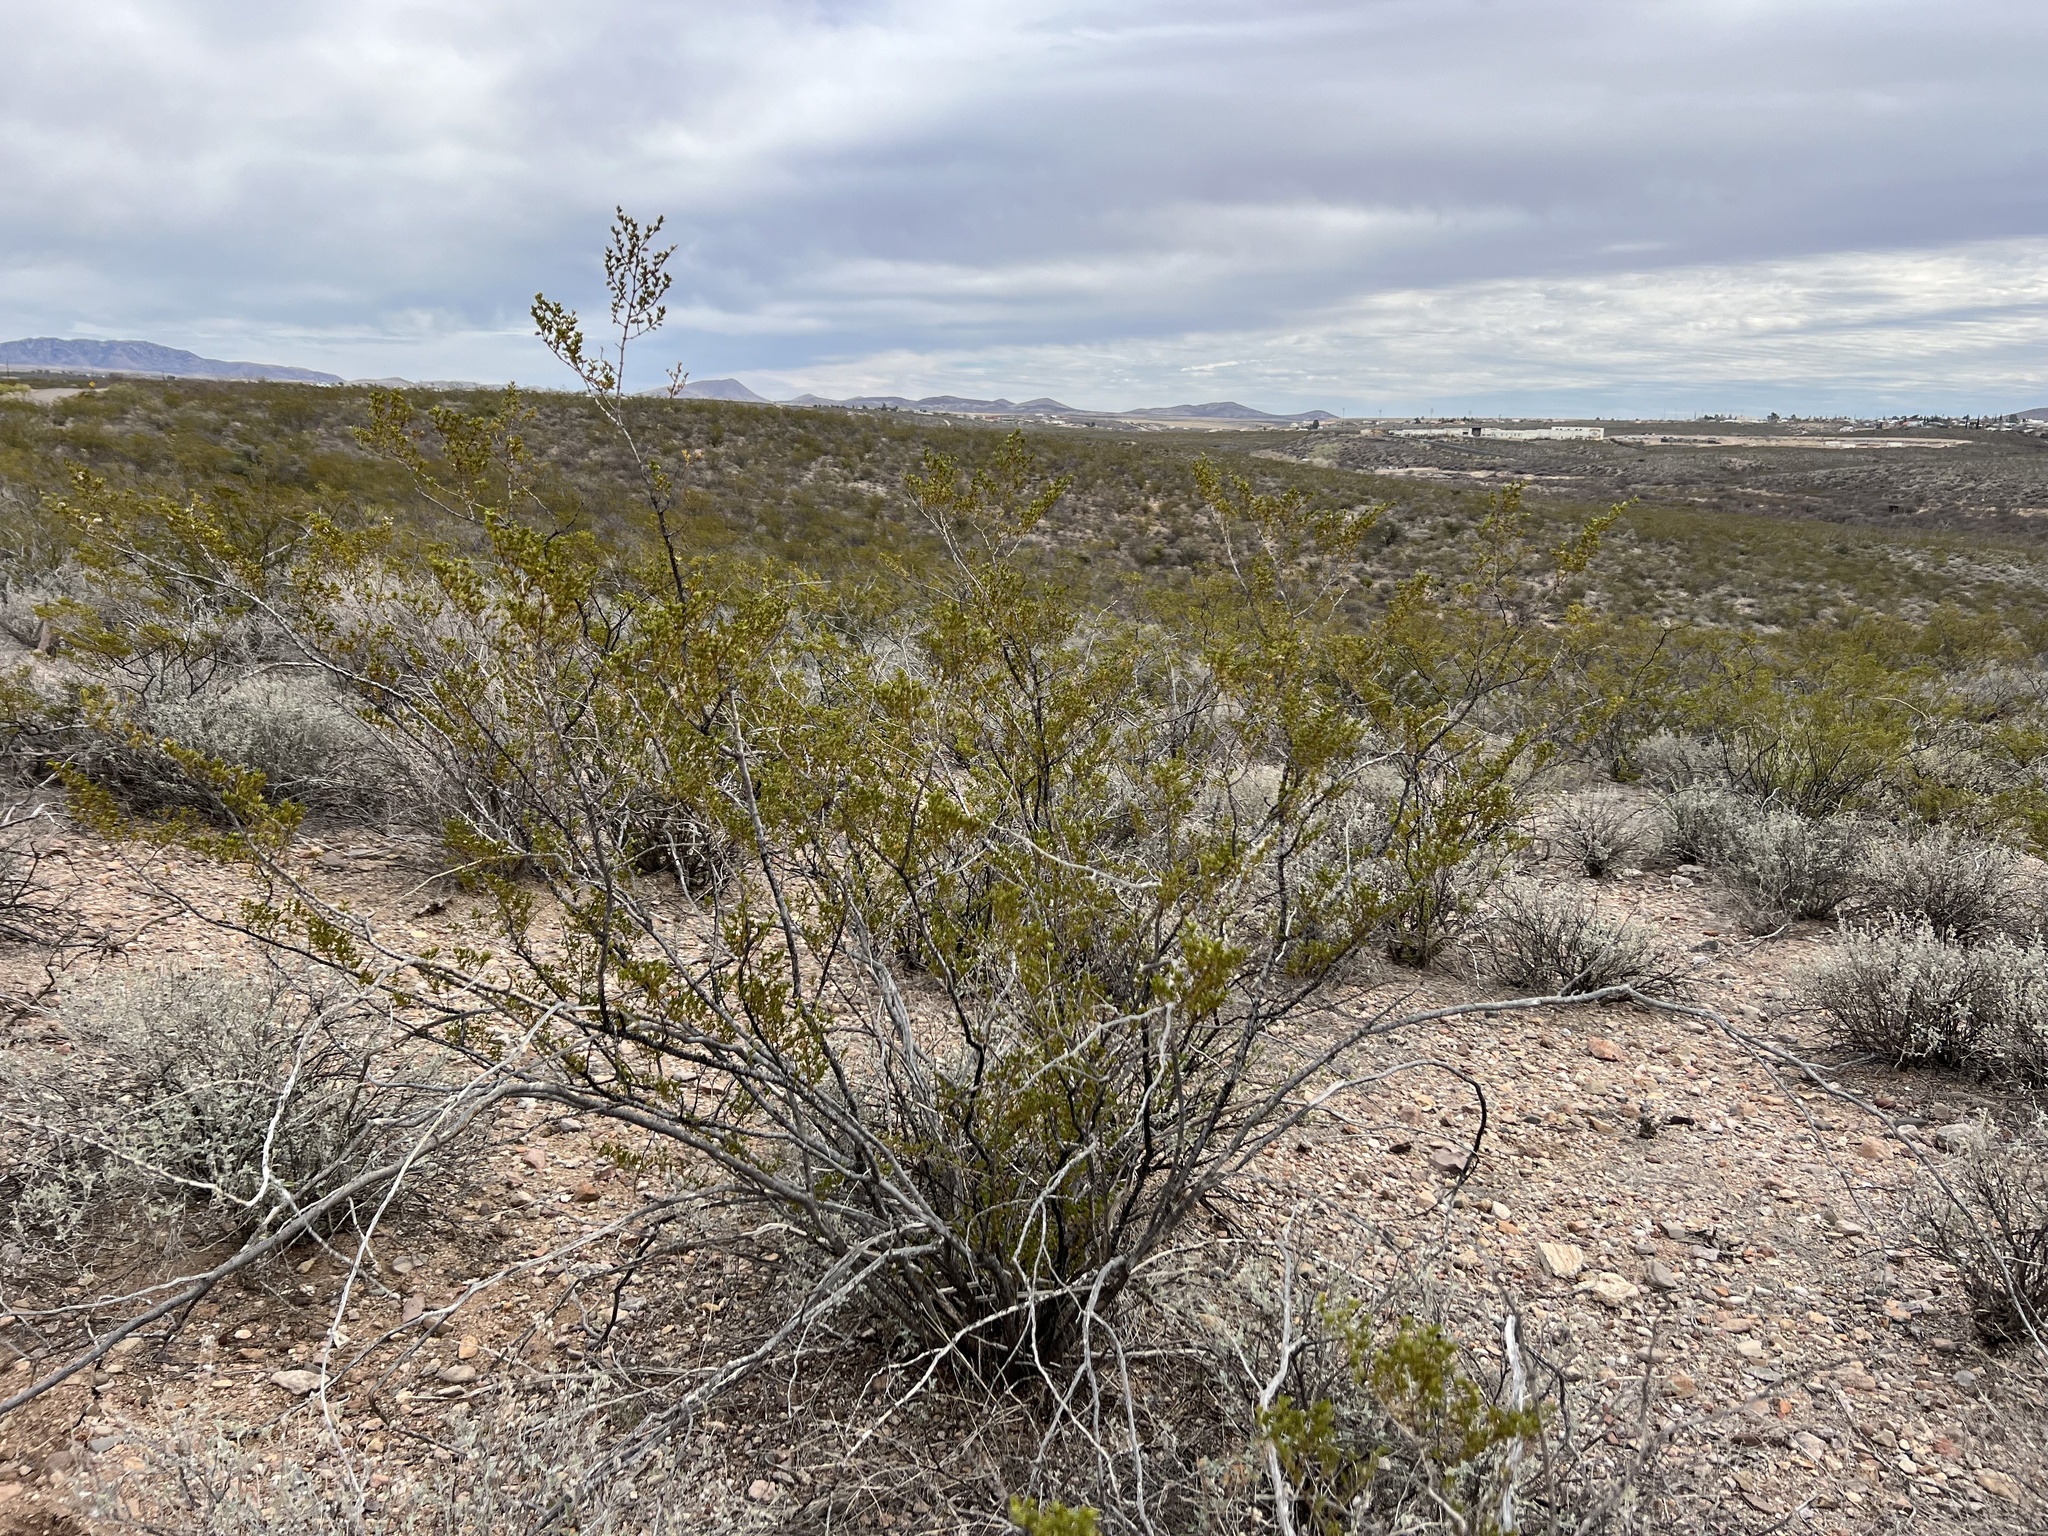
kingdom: Plantae
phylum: Tracheophyta
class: Magnoliopsida
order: Zygophyllales
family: Zygophyllaceae
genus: Larrea
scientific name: Larrea tridentata
